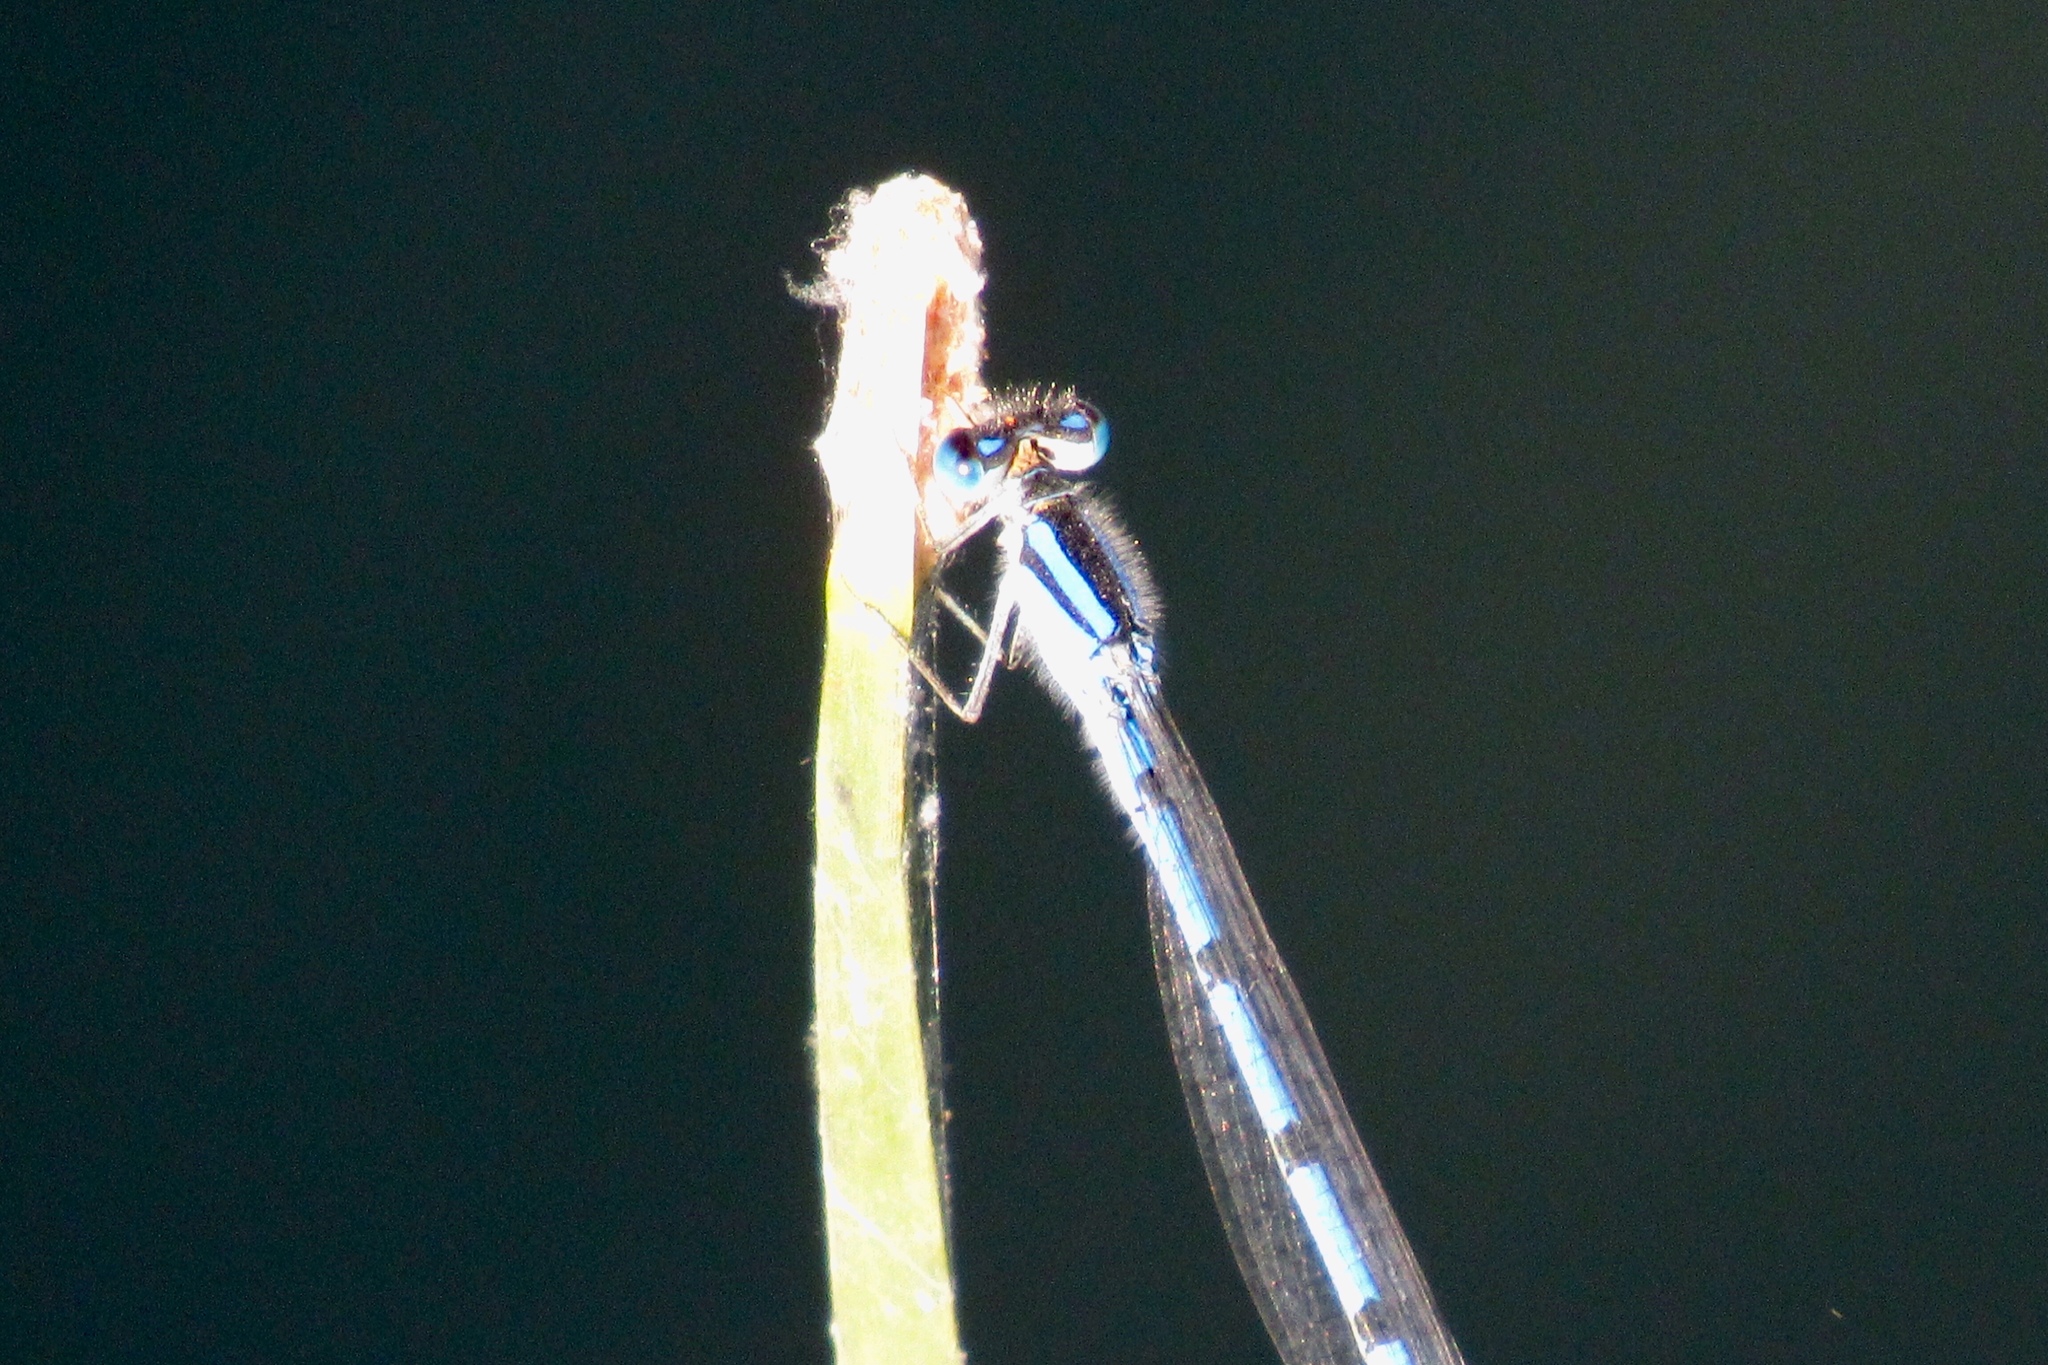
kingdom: Animalia
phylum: Arthropoda
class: Insecta
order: Odonata
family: Coenagrionidae
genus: Enallagma
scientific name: Enallagma civile
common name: Damselfly
